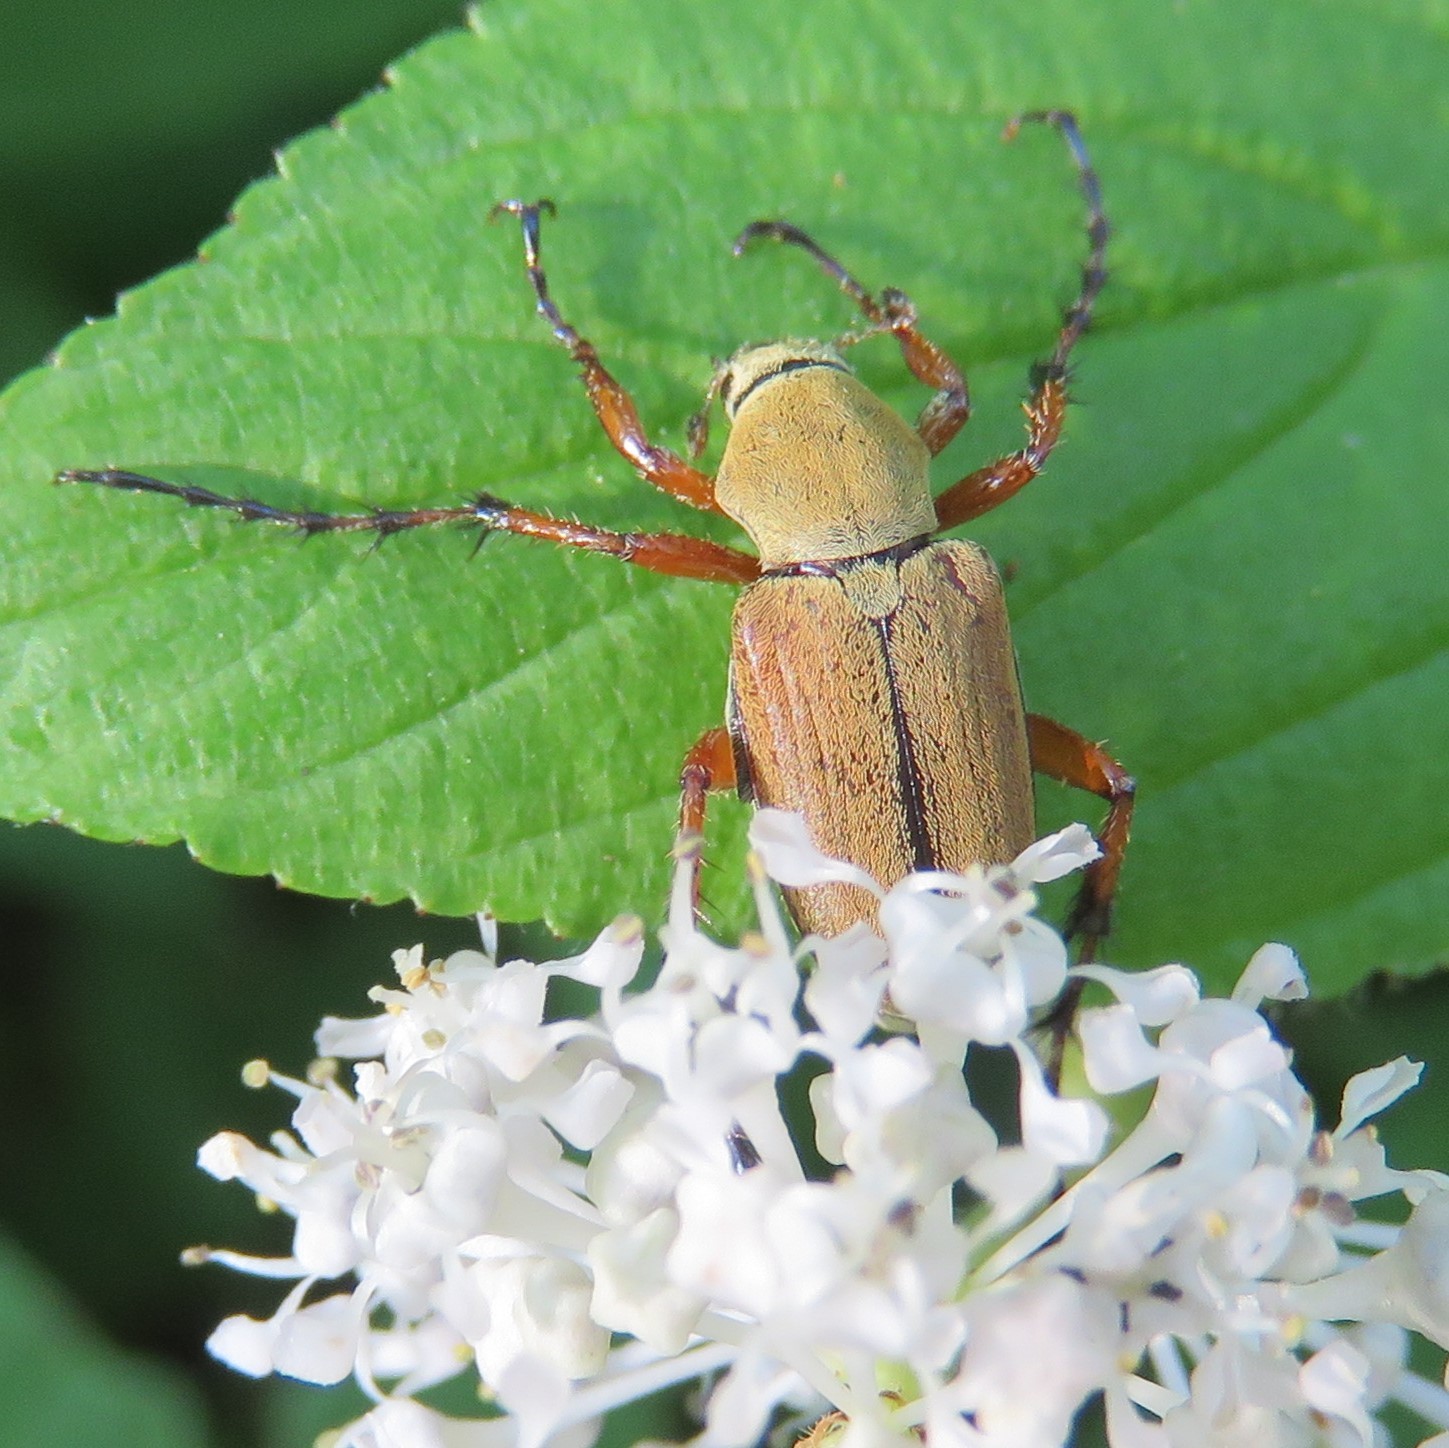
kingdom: Animalia
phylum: Arthropoda
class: Insecta
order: Coleoptera
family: Scarabaeidae
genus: Macrodactylus
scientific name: Macrodactylus subspinosus
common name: American rose chafer
